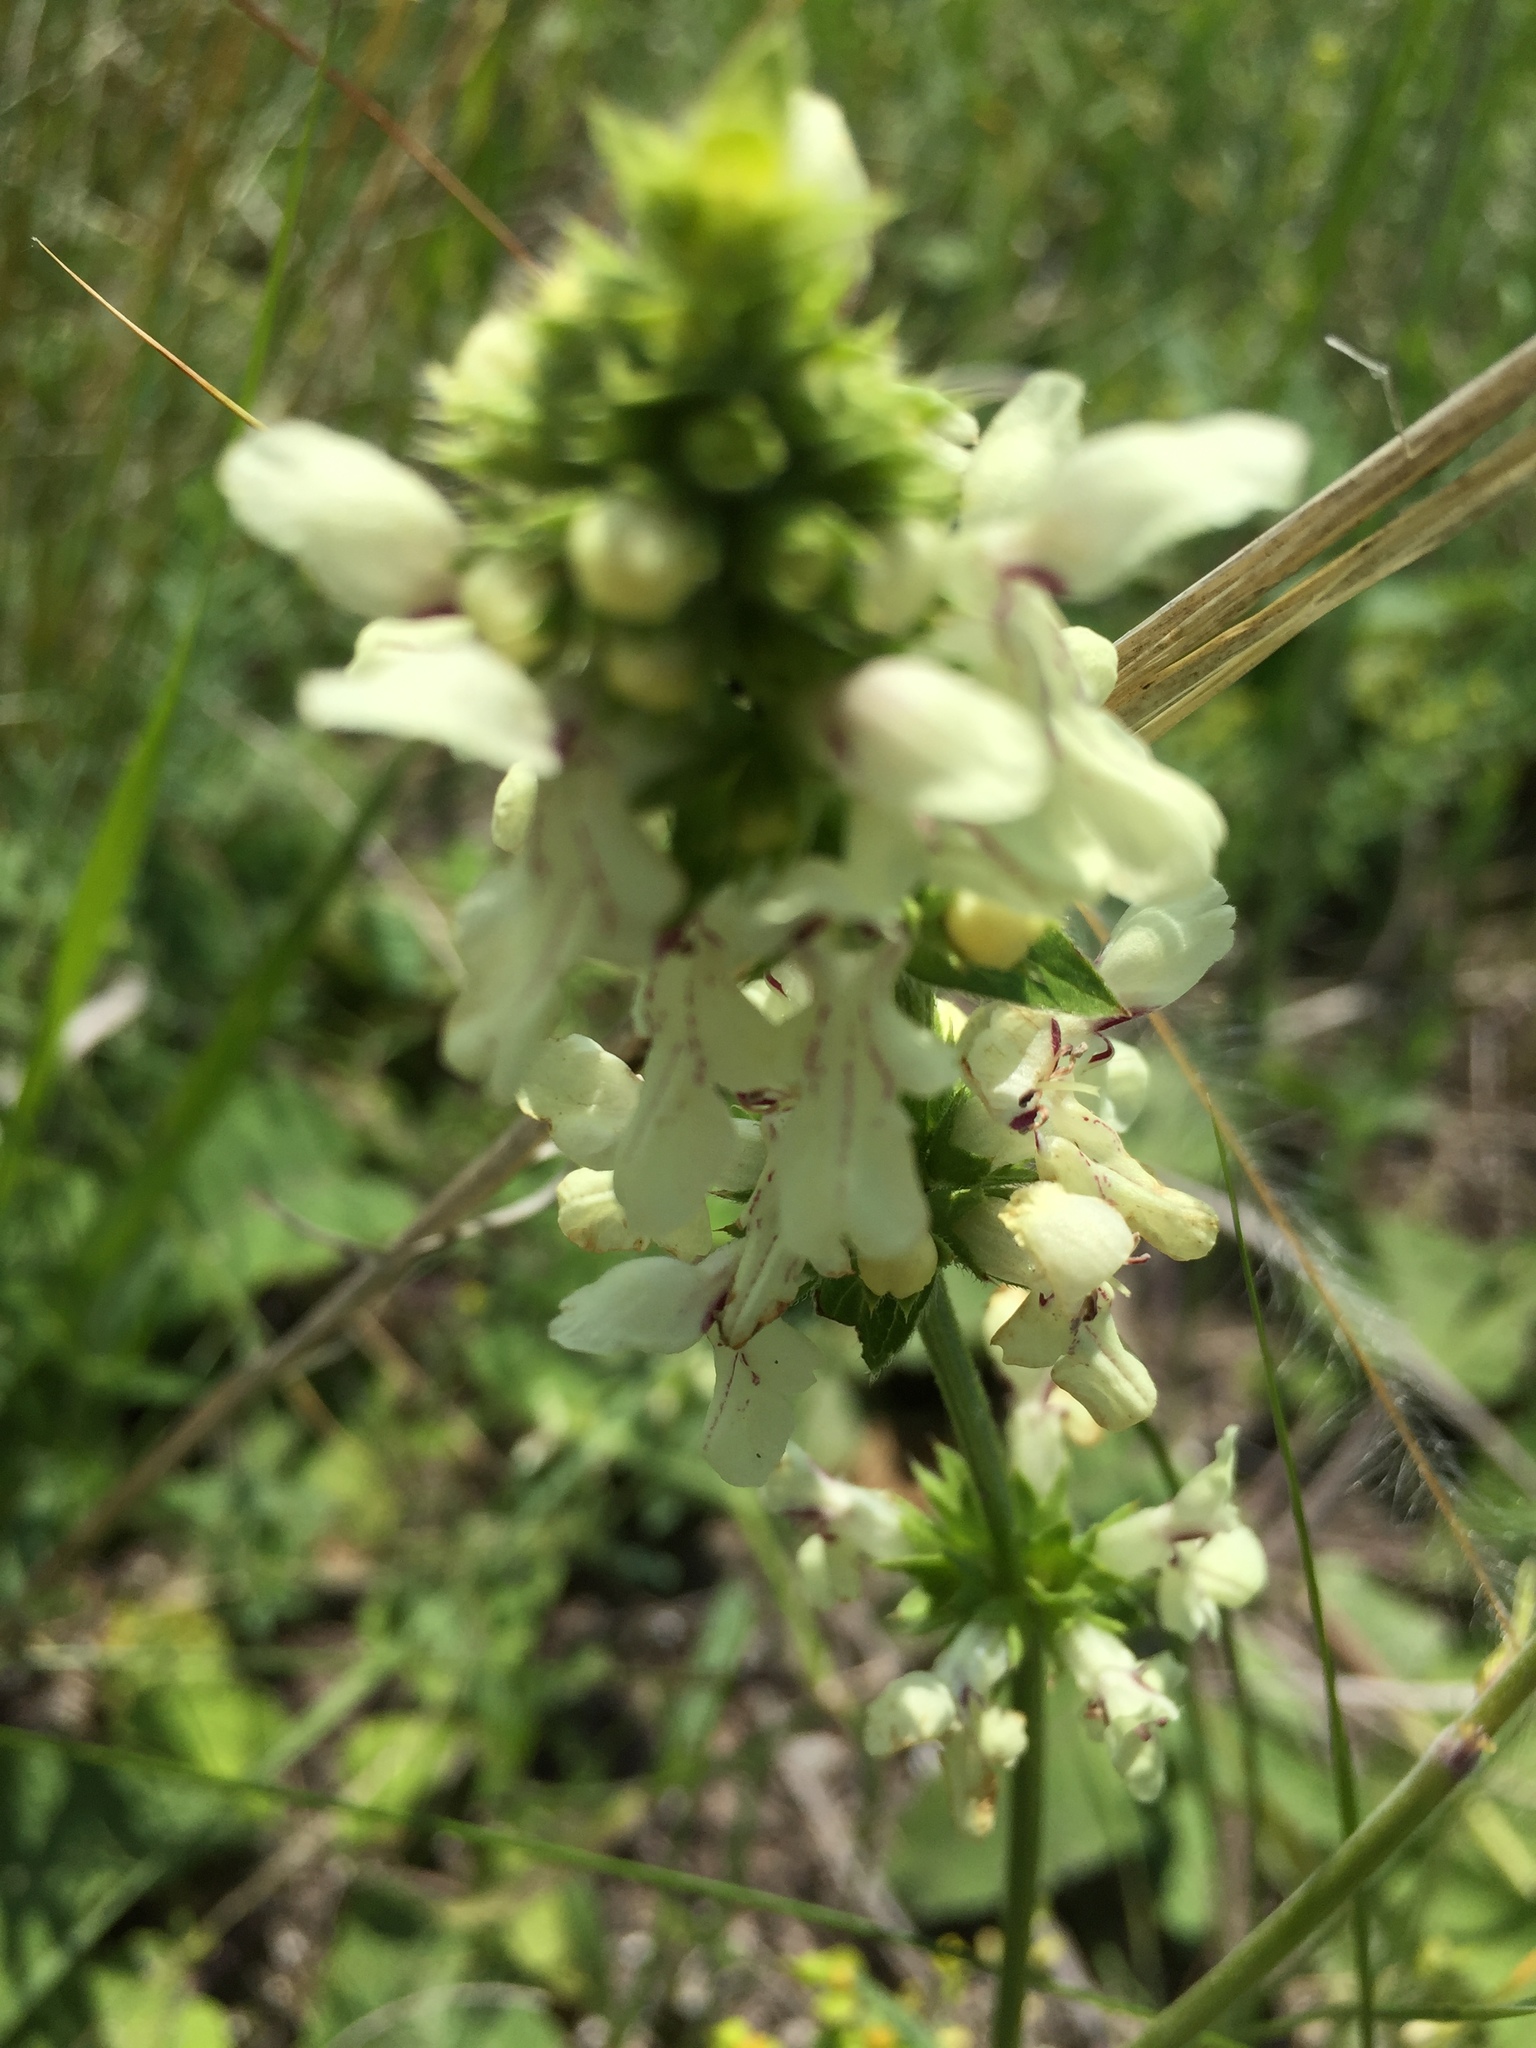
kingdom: Plantae
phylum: Tracheophyta
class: Magnoliopsida
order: Lamiales
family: Lamiaceae
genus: Stachys
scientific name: Stachys recta
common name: Perennial yellow-woundwort
